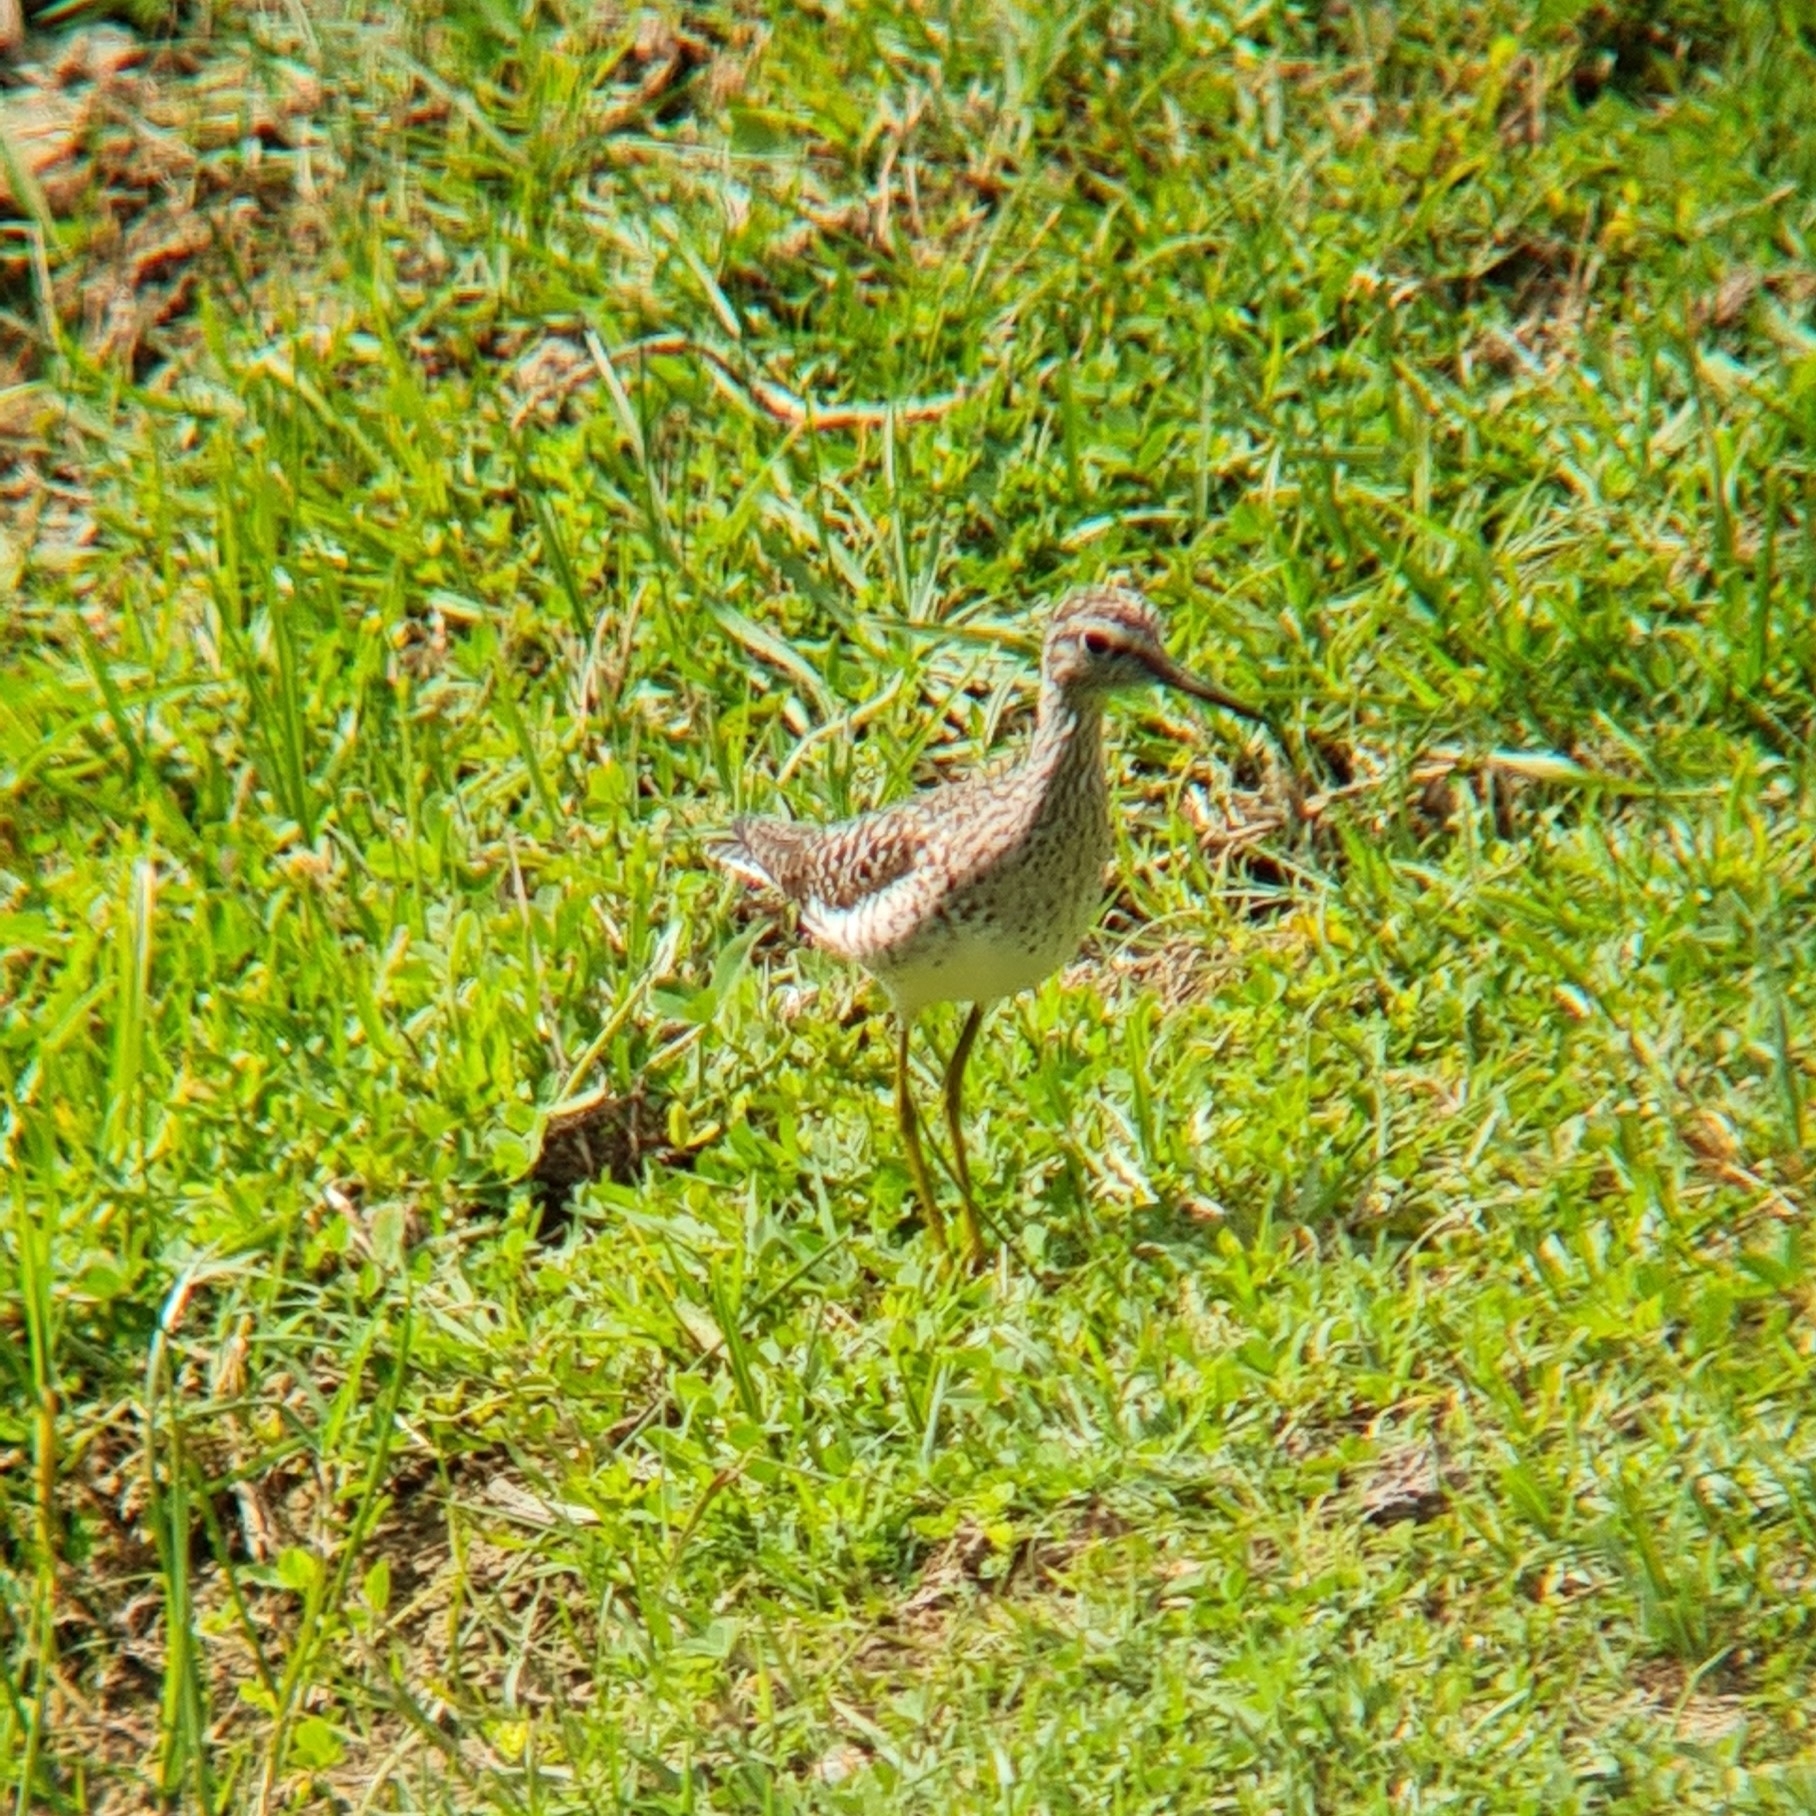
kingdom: Animalia
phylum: Chordata
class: Aves
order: Charadriiformes
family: Scolopacidae
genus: Tringa
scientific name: Tringa glareola
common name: Wood sandpiper
